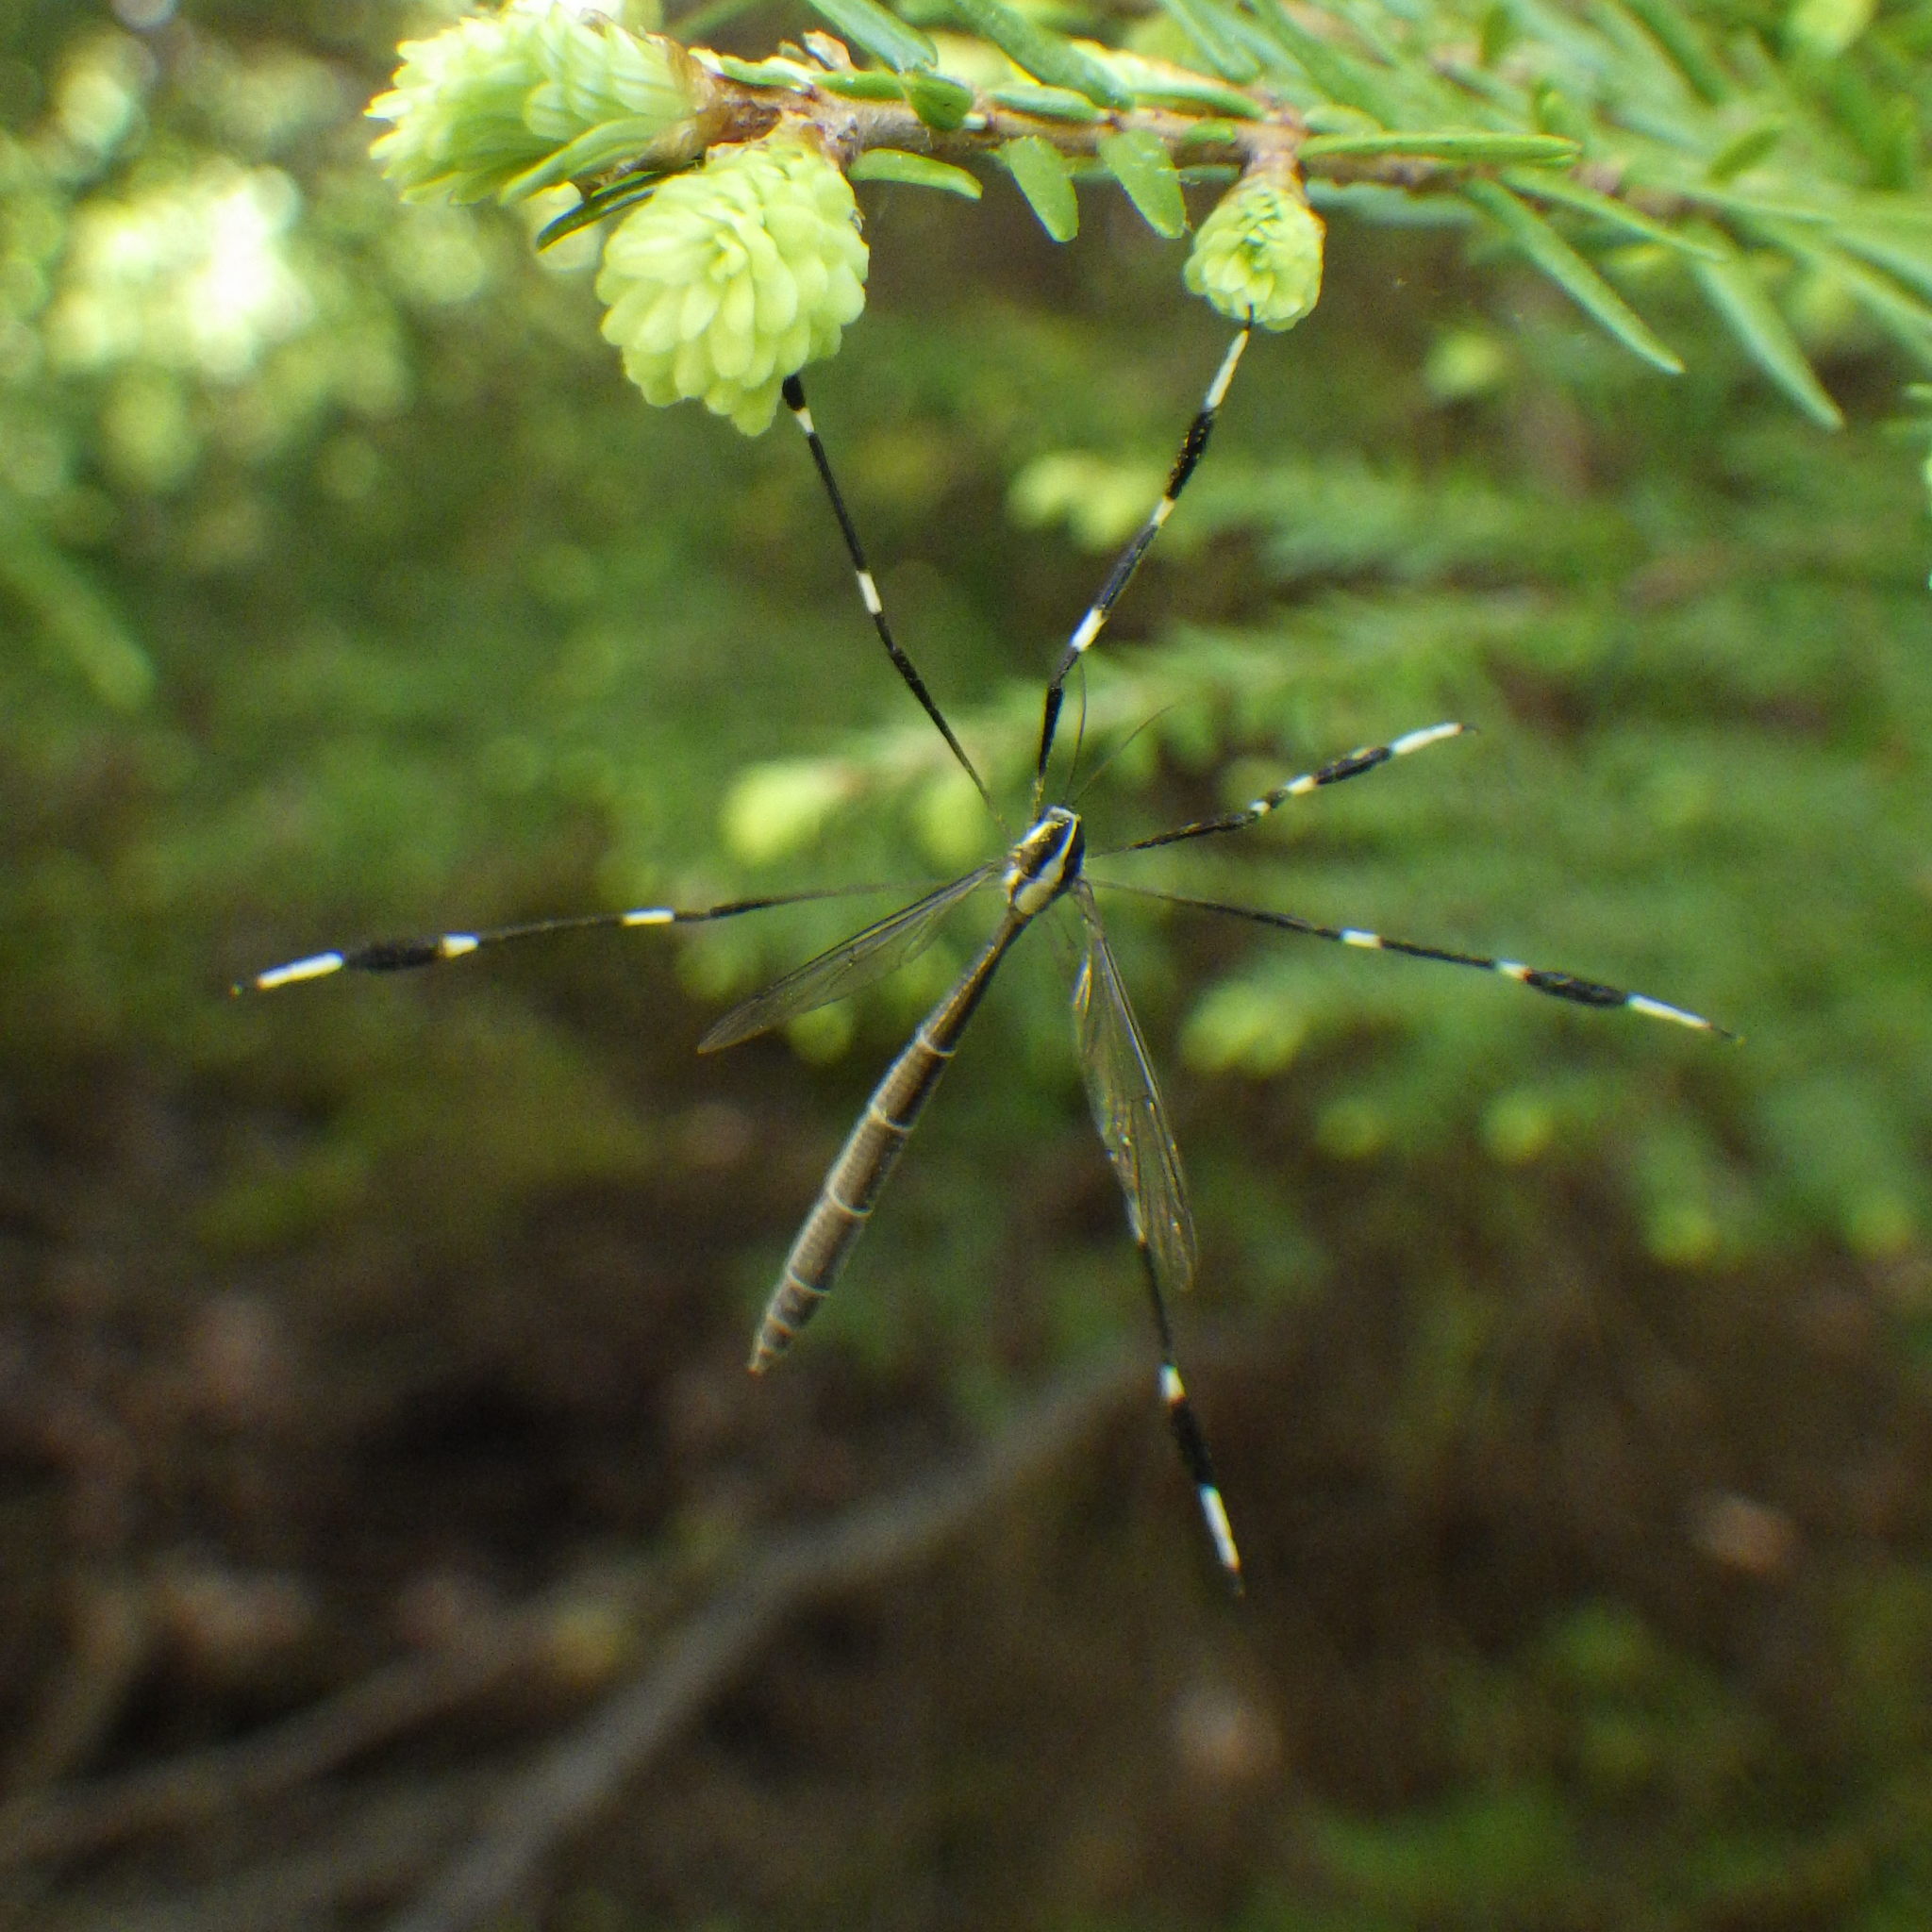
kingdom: Animalia
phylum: Arthropoda
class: Insecta
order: Diptera
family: Ptychopteridae
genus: Bittacomorpha
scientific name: Bittacomorpha clavipes
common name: Eastern phantom crane fly
